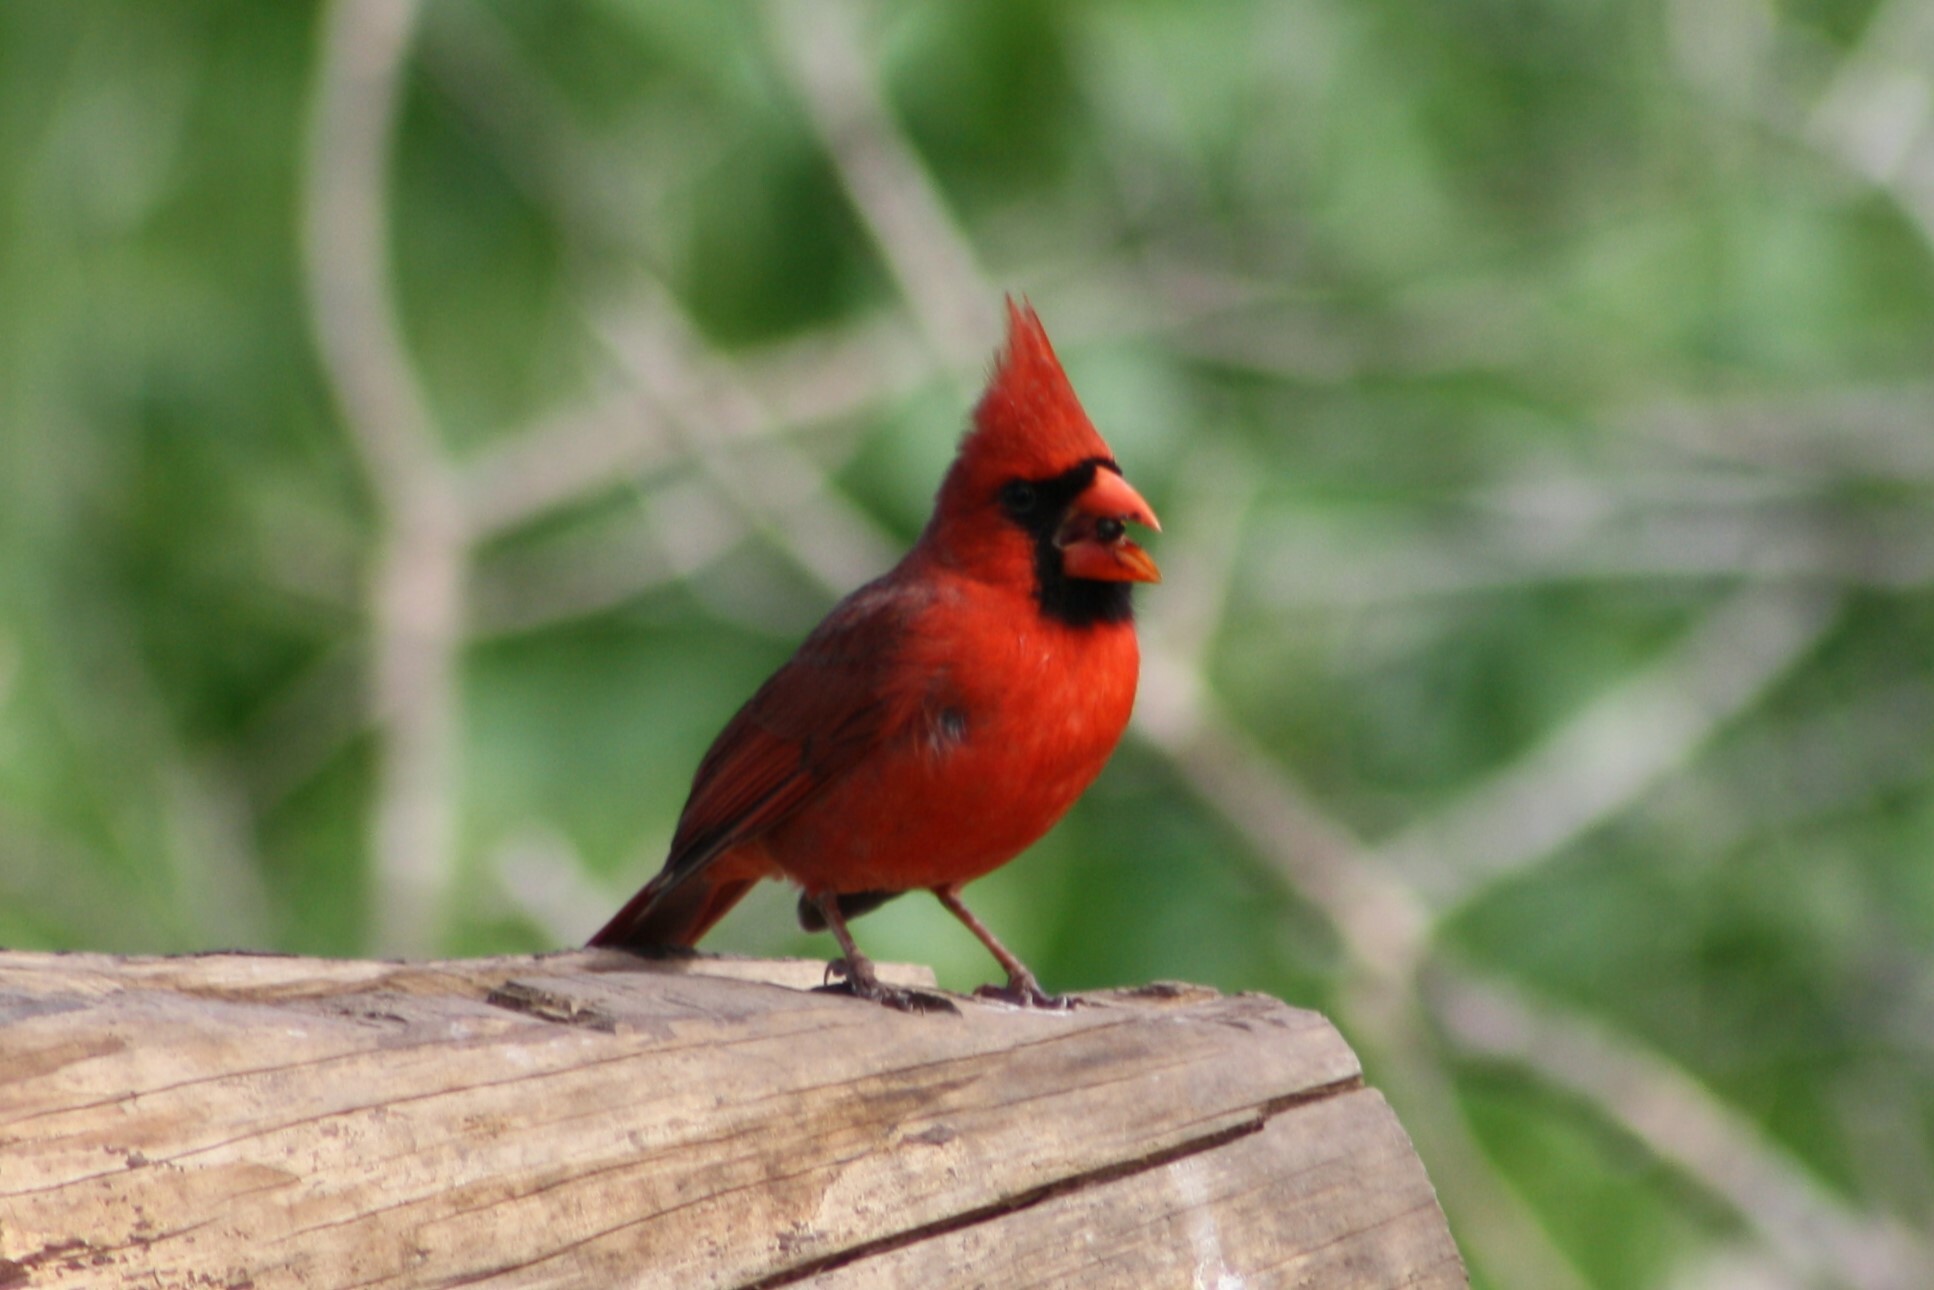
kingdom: Animalia
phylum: Chordata
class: Aves
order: Passeriformes
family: Cardinalidae
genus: Cardinalis
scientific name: Cardinalis cardinalis
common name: Northern cardinal
